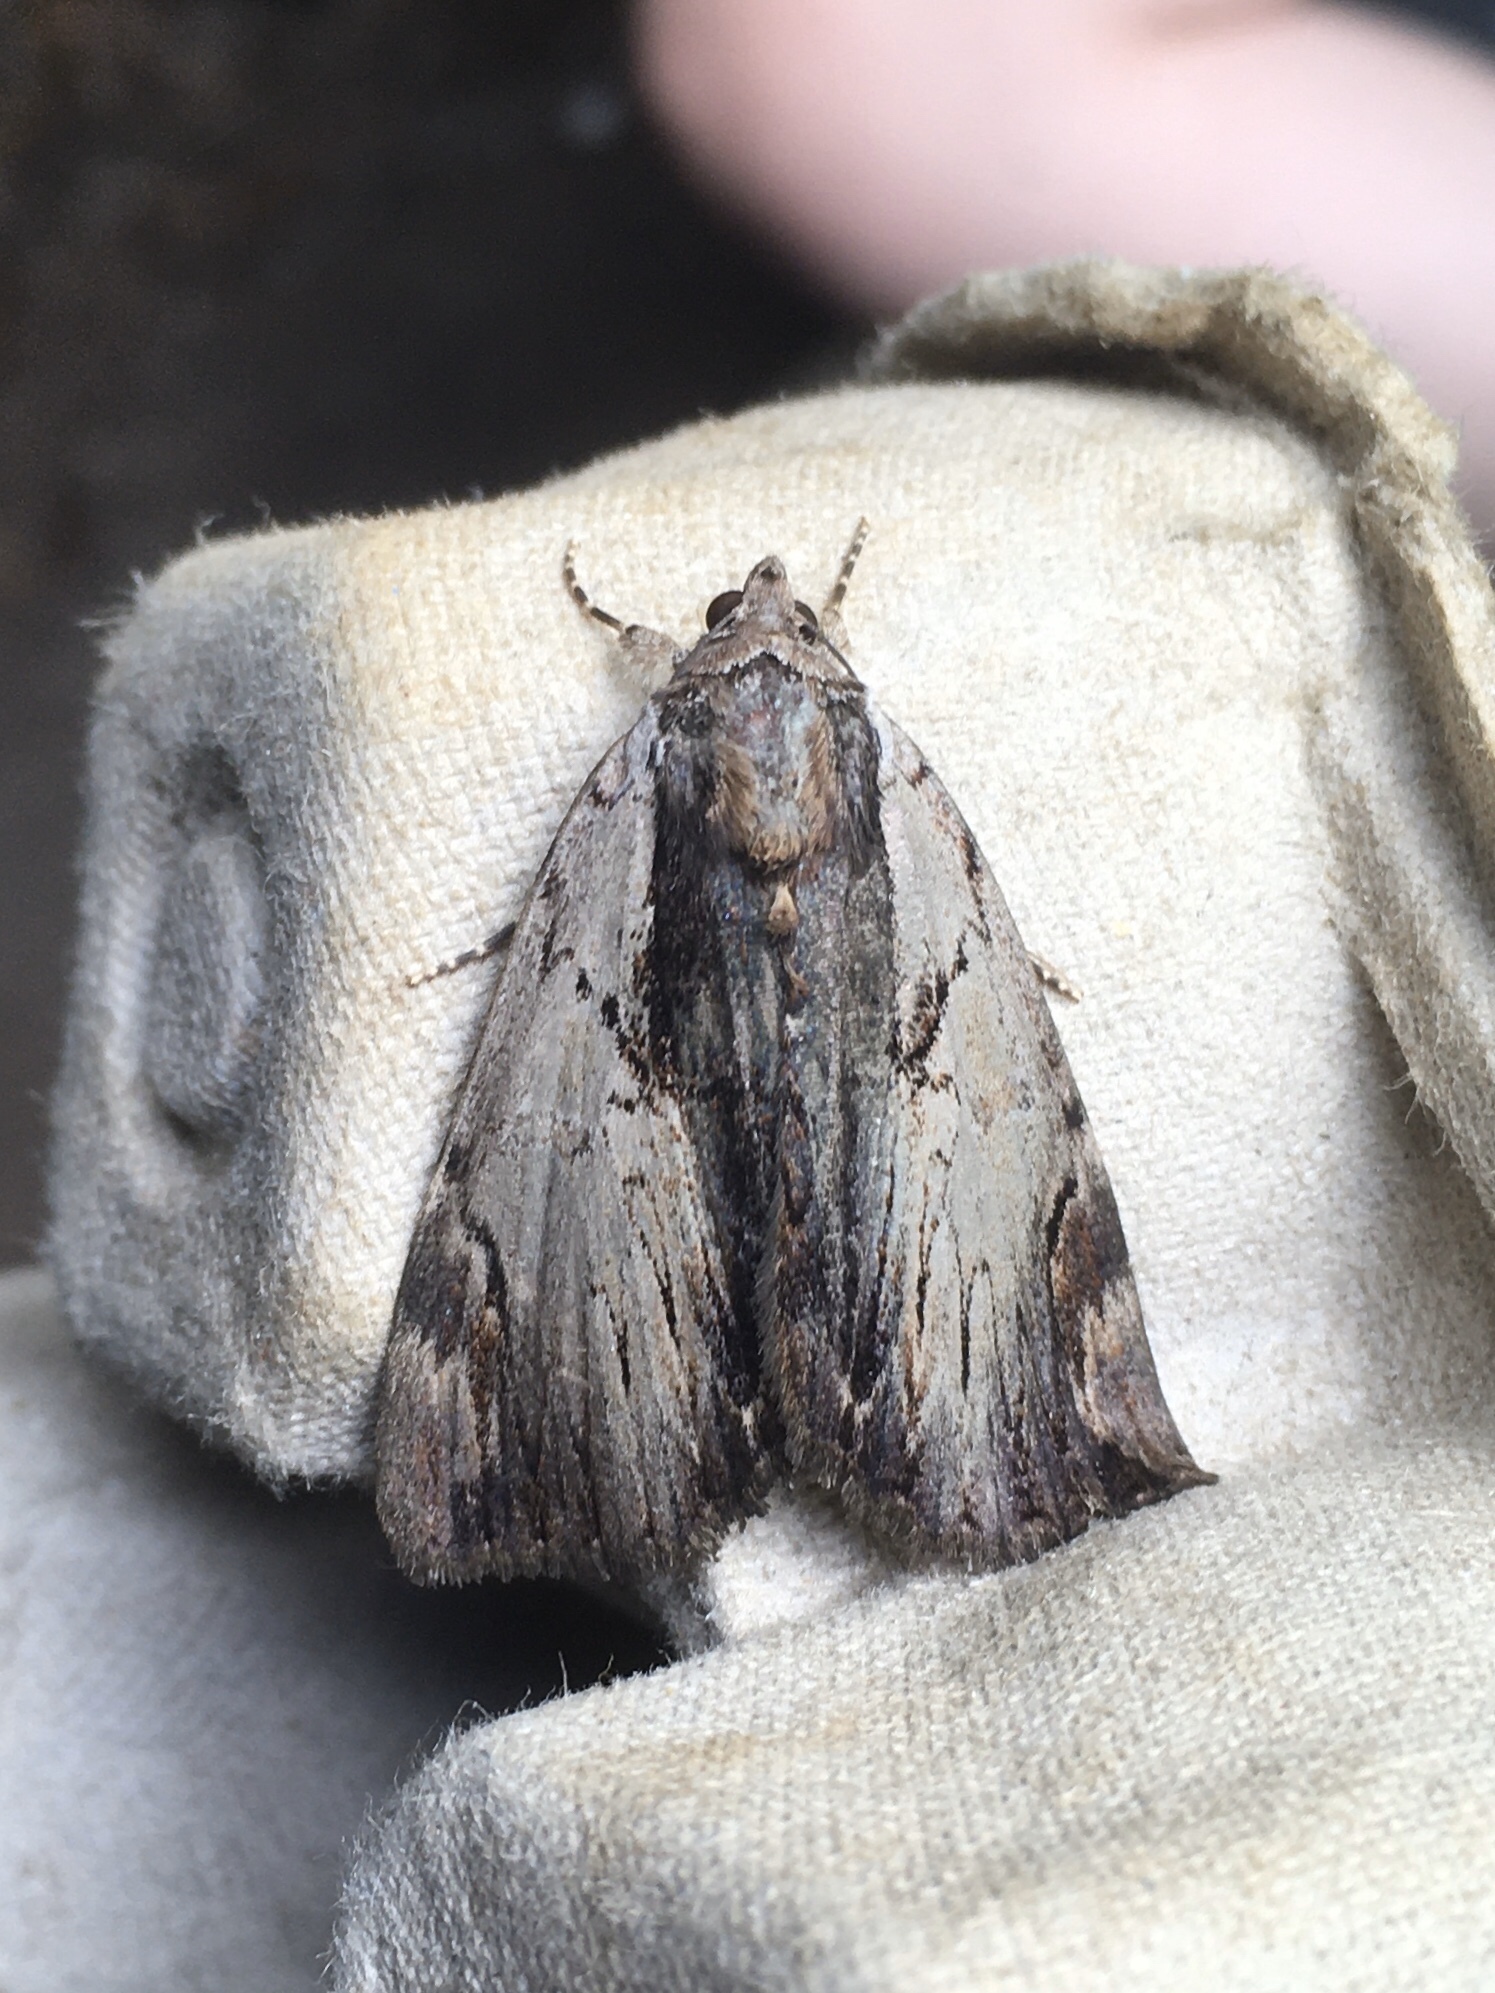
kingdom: Animalia
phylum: Arthropoda
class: Insecta
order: Lepidoptera
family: Erebidae
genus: Catocala
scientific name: Catocala ultronia
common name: Ultronia underwing
